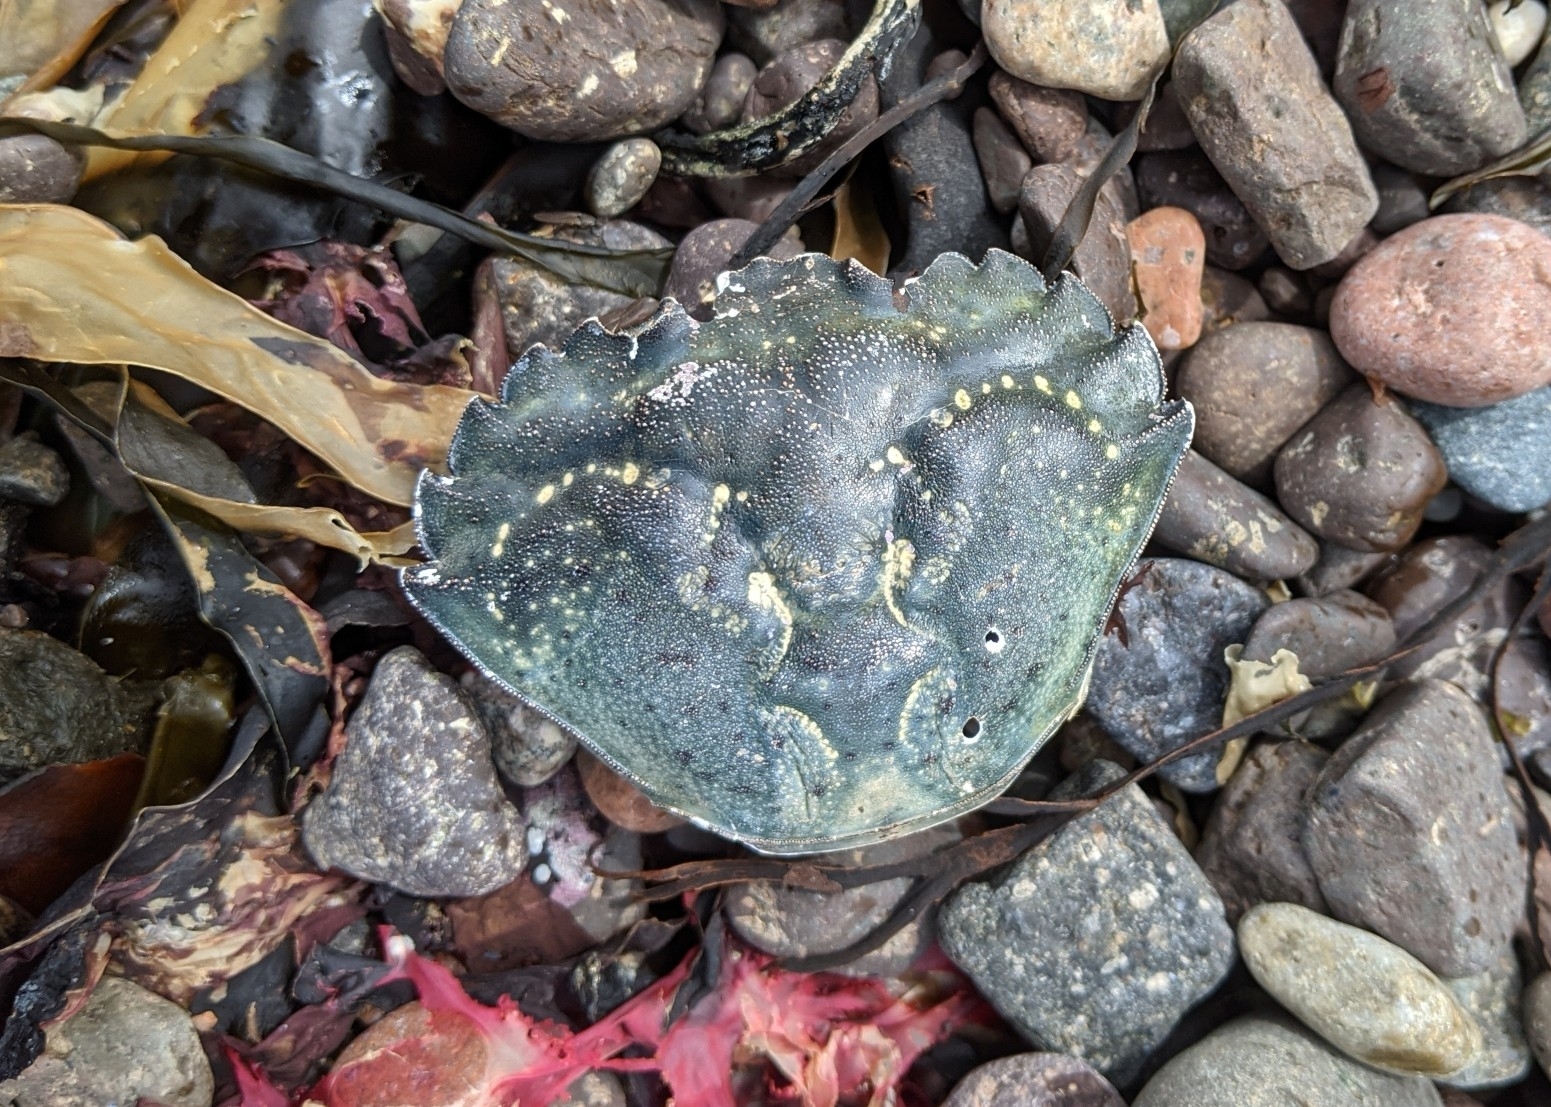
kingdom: Animalia
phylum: Arthropoda
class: Malacostraca
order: Decapoda
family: Carcinidae
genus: Carcinus
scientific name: Carcinus maenas
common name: European green crab
